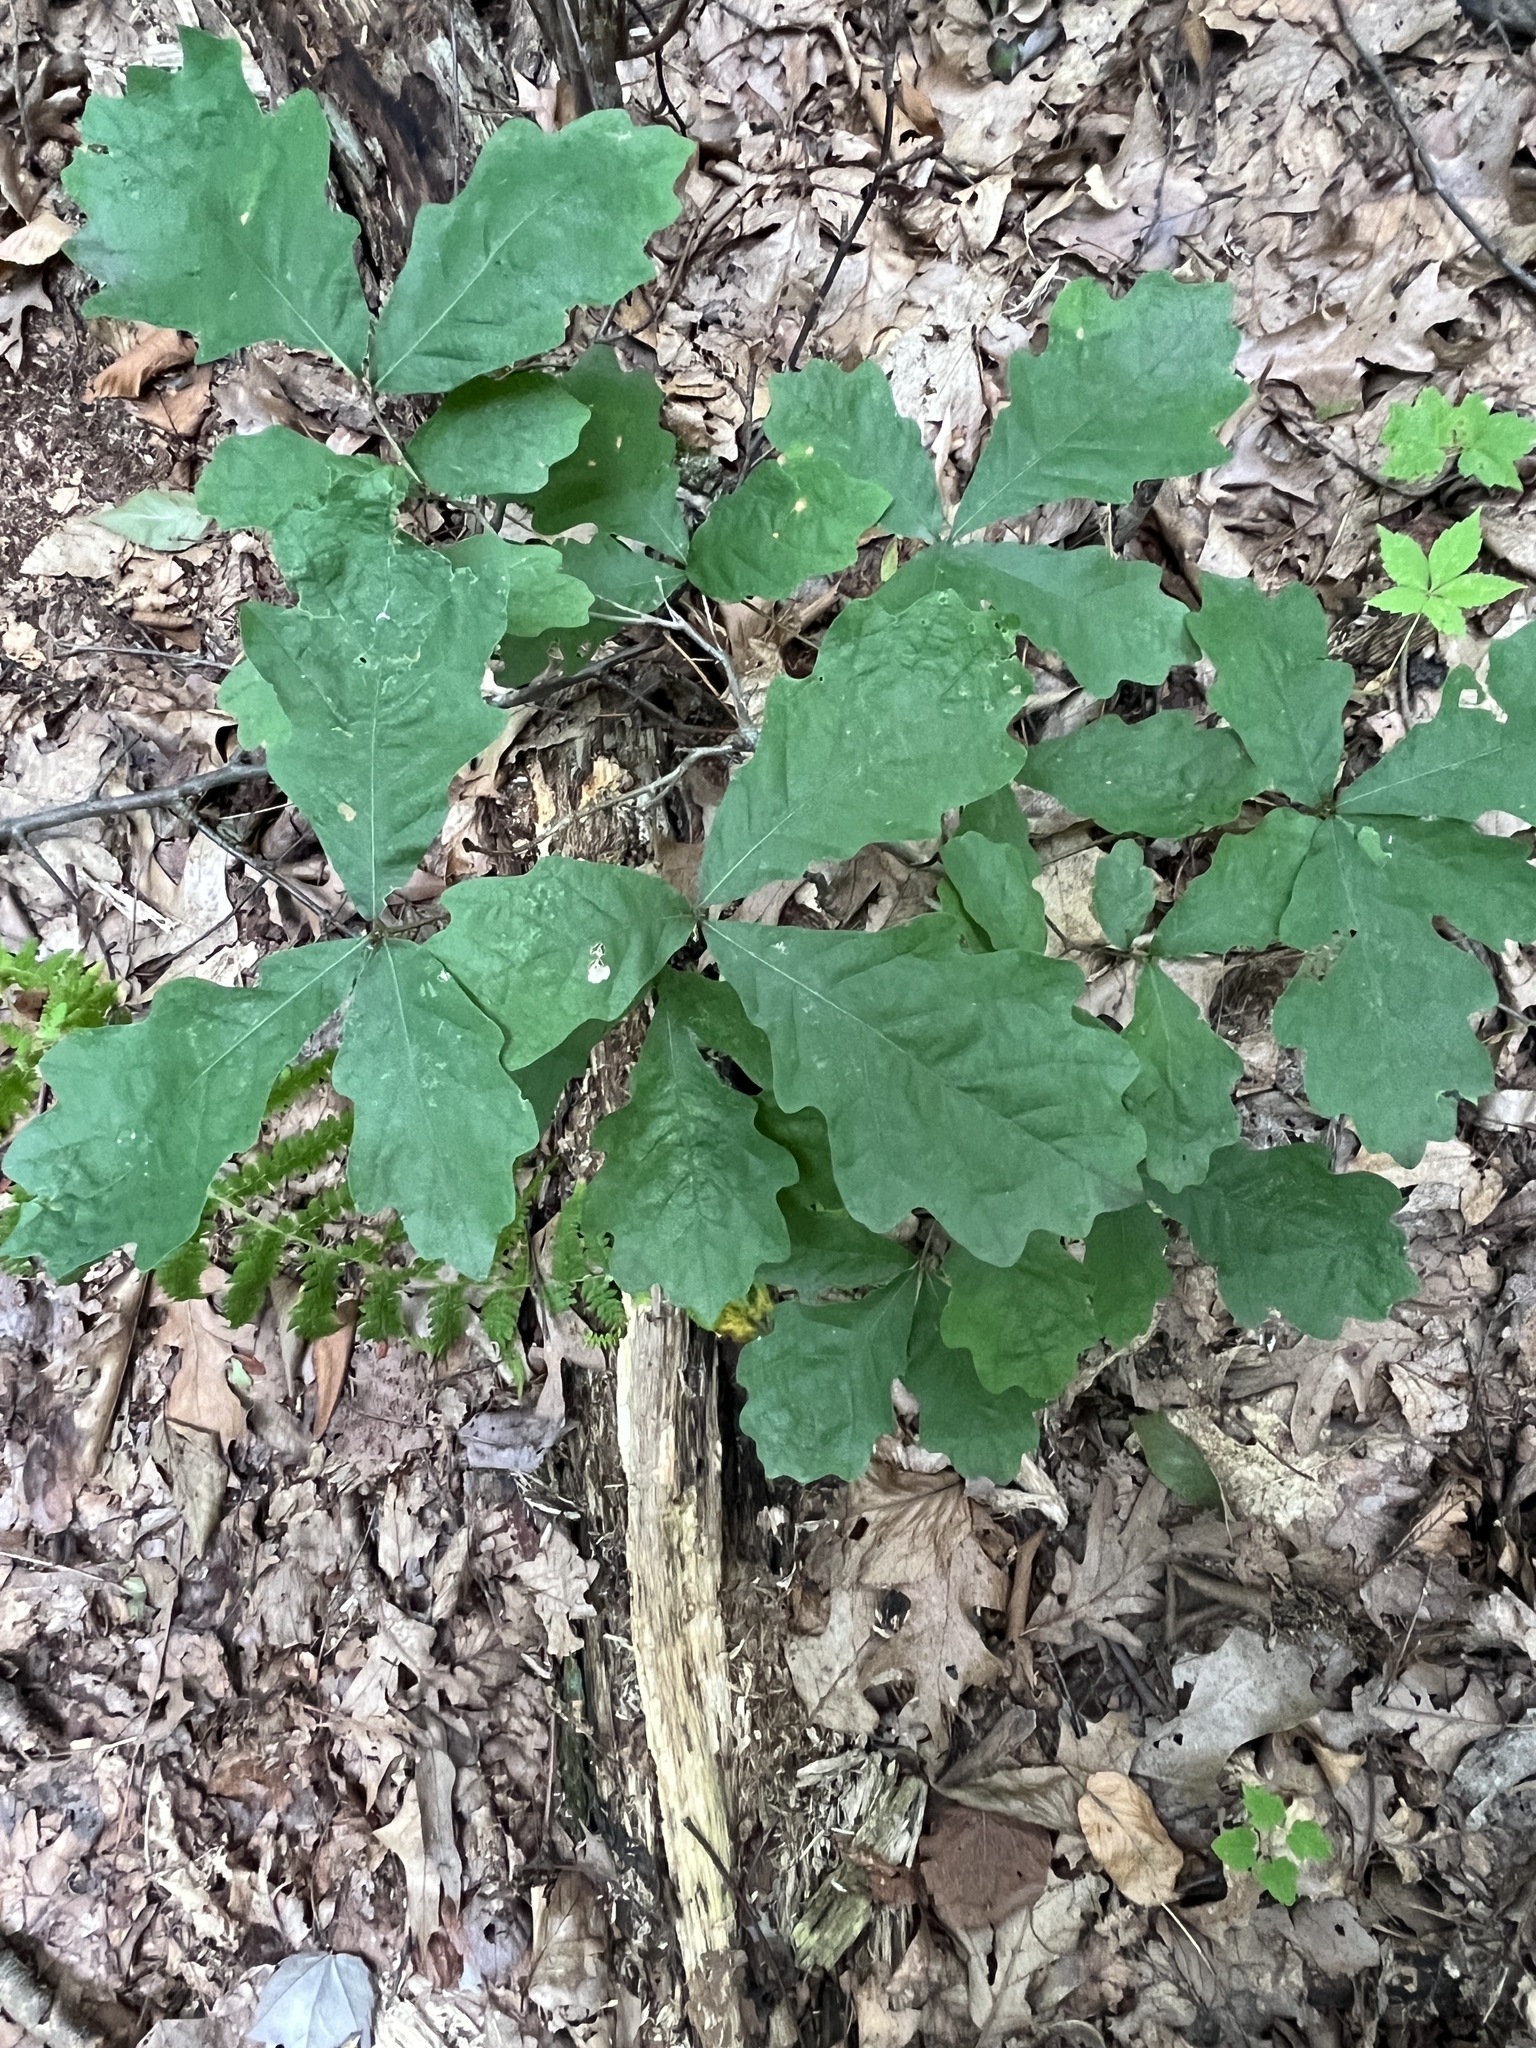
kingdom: Plantae
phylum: Tracheophyta
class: Magnoliopsida
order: Fagales
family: Fagaceae
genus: Quercus
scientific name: Quercus alba
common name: White oak
